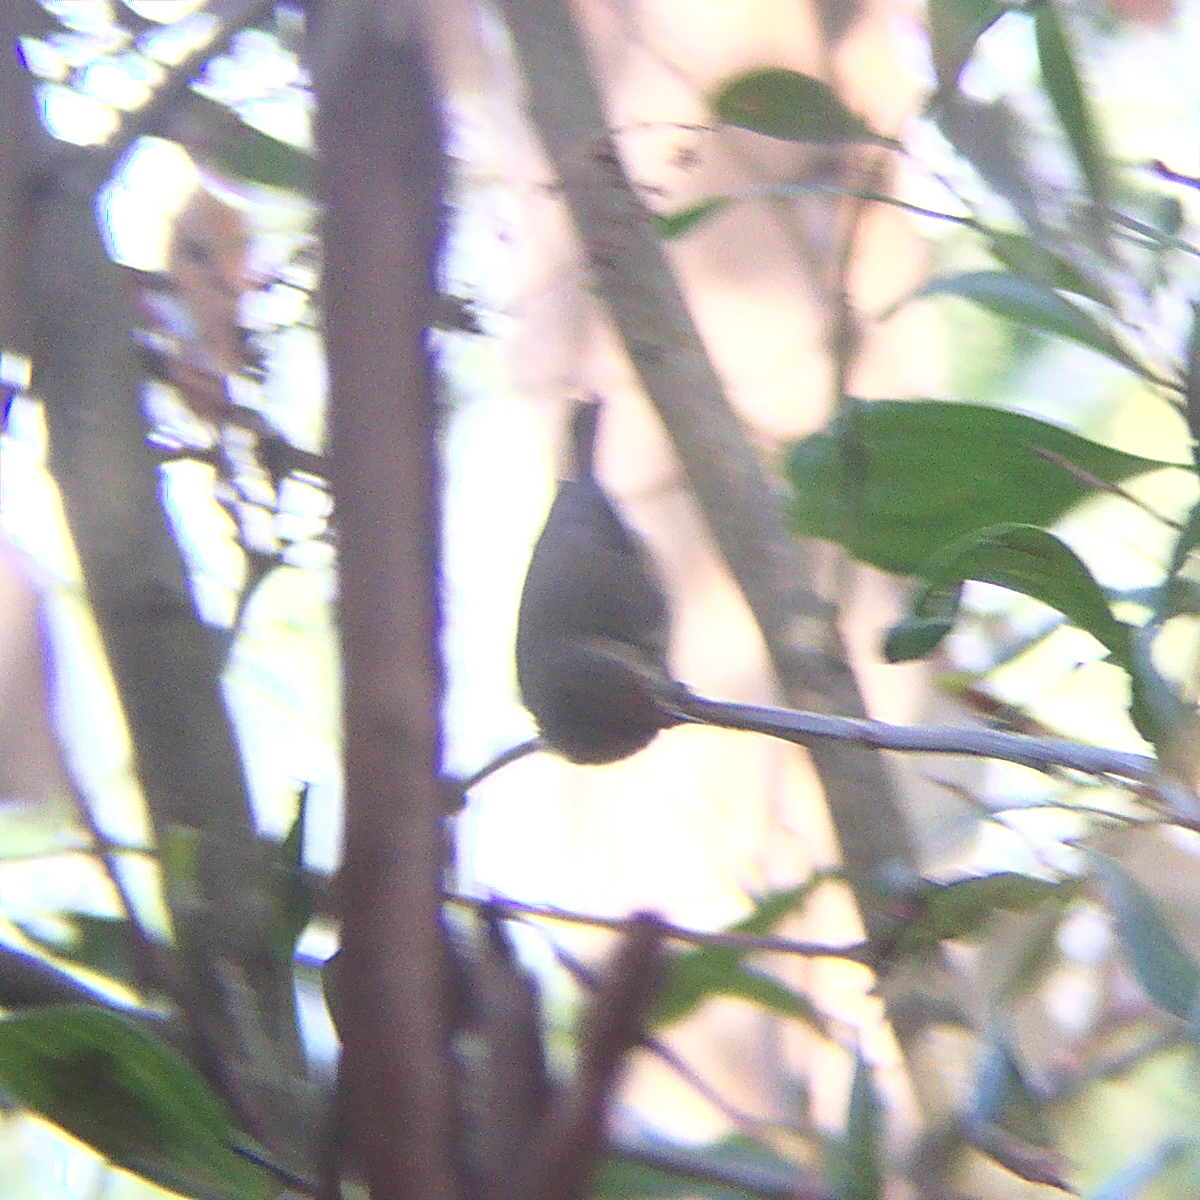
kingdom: Animalia
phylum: Chordata
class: Aves
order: Passeriformes
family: Acanthizidae
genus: Acanthiza
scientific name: Acanthiza pusilla
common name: Brown thornbill
